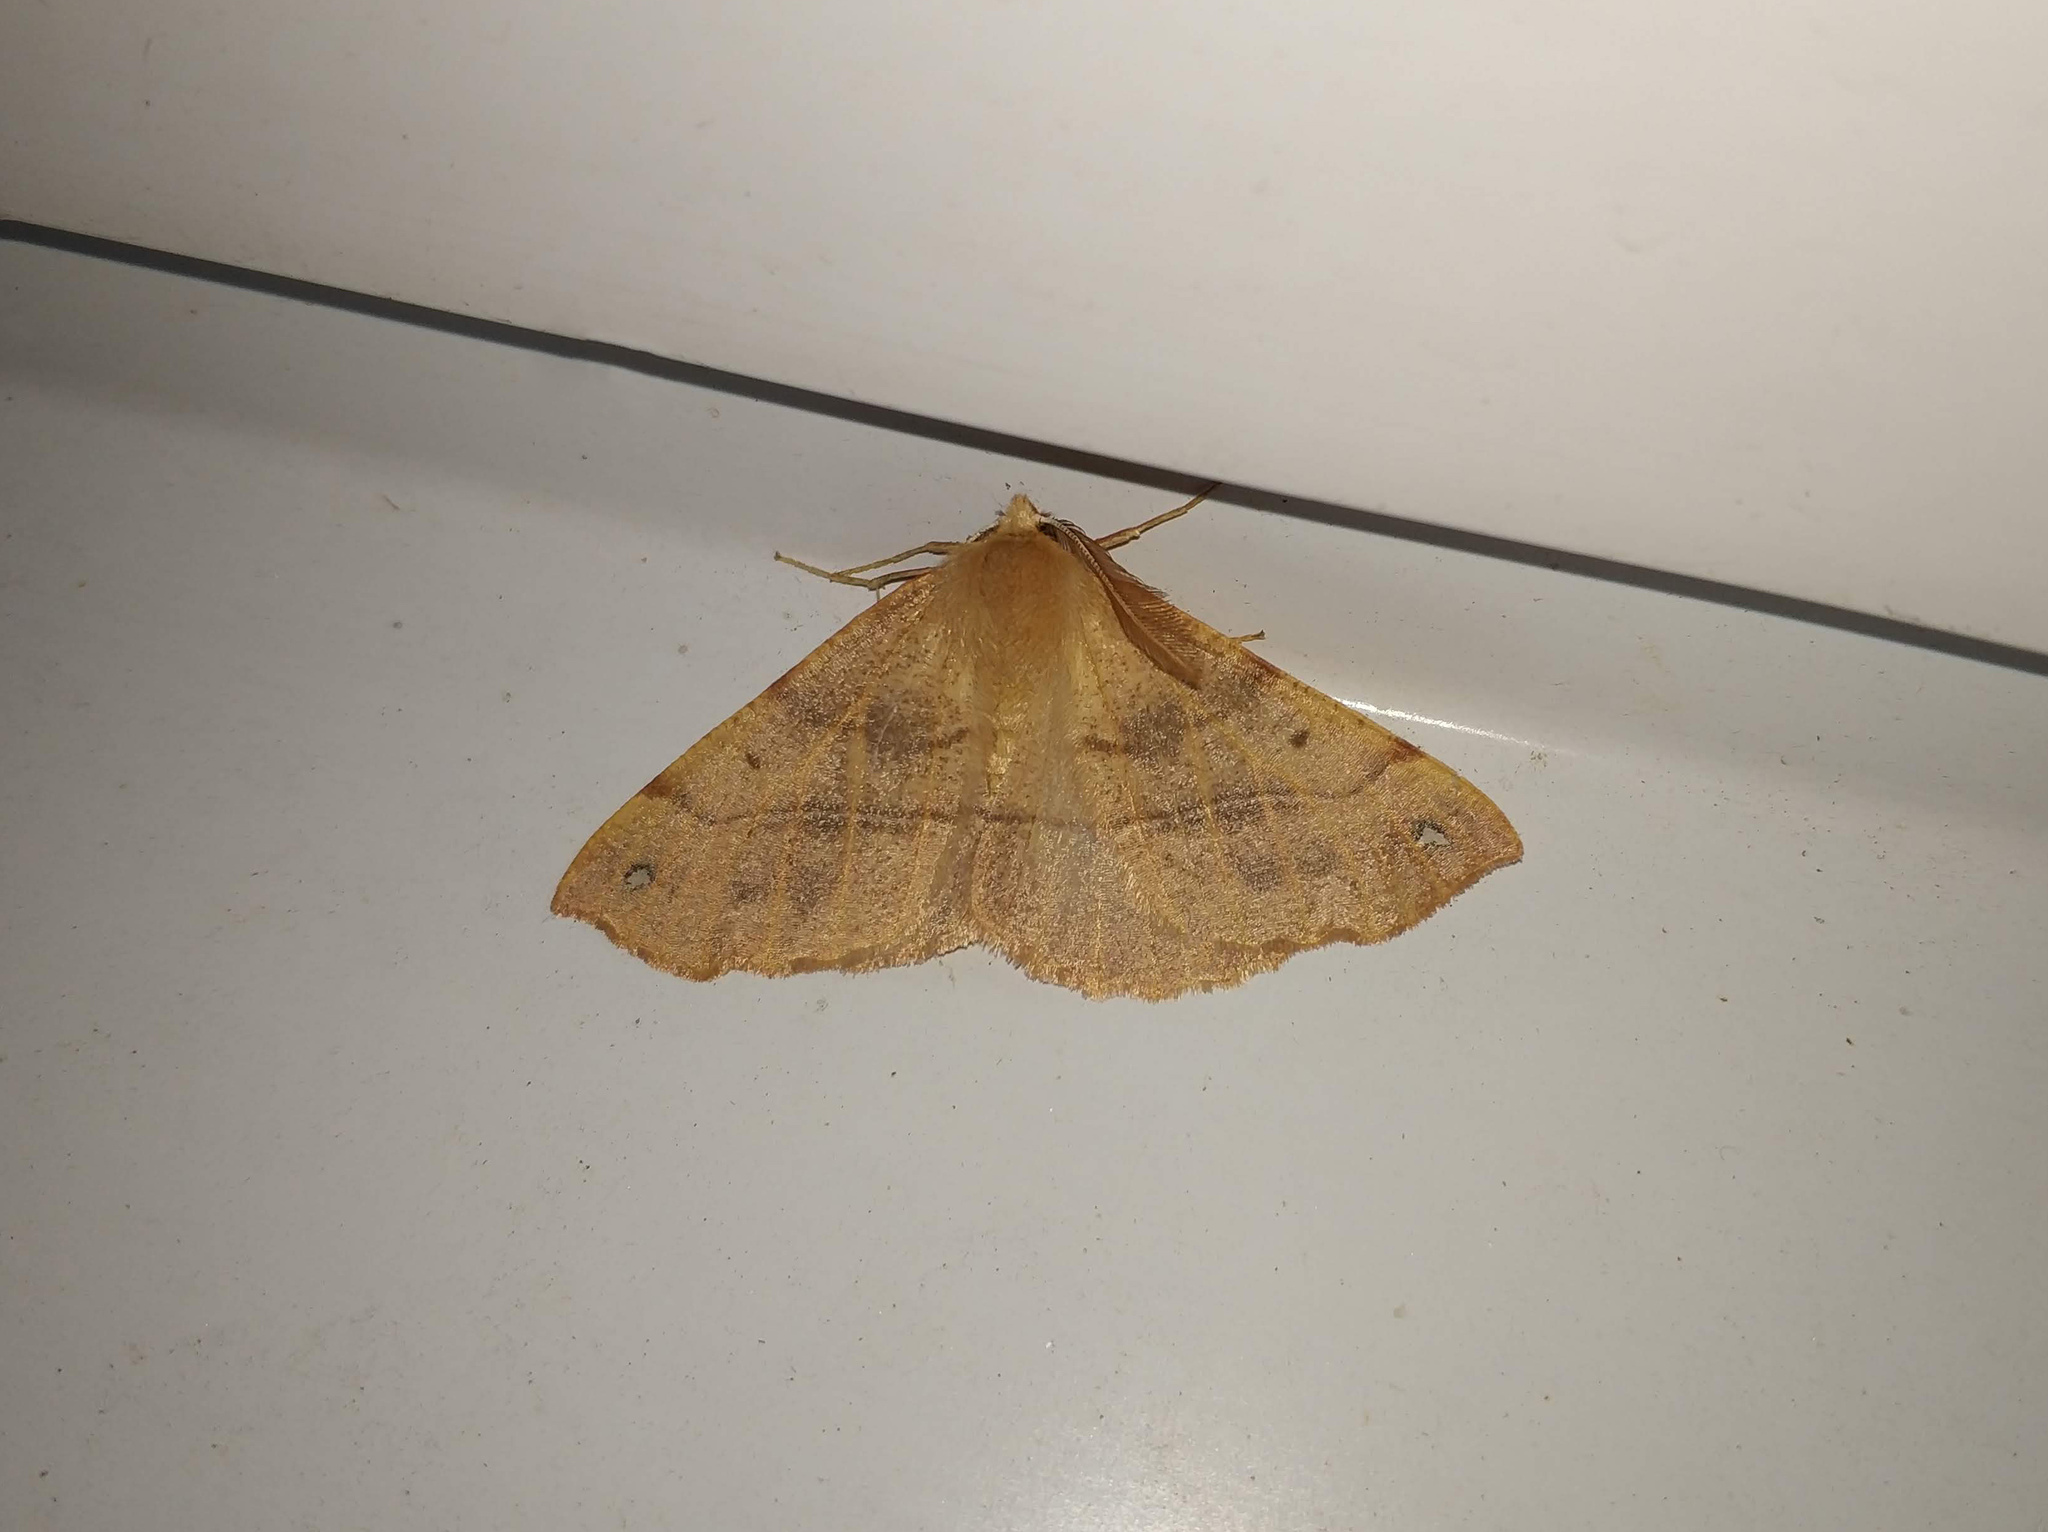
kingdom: Animalia
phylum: Arthropoda
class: Insecta
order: Lepidoptera
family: Geometridae
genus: Colotois
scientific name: Colotois pennaria
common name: Feathered thorn
